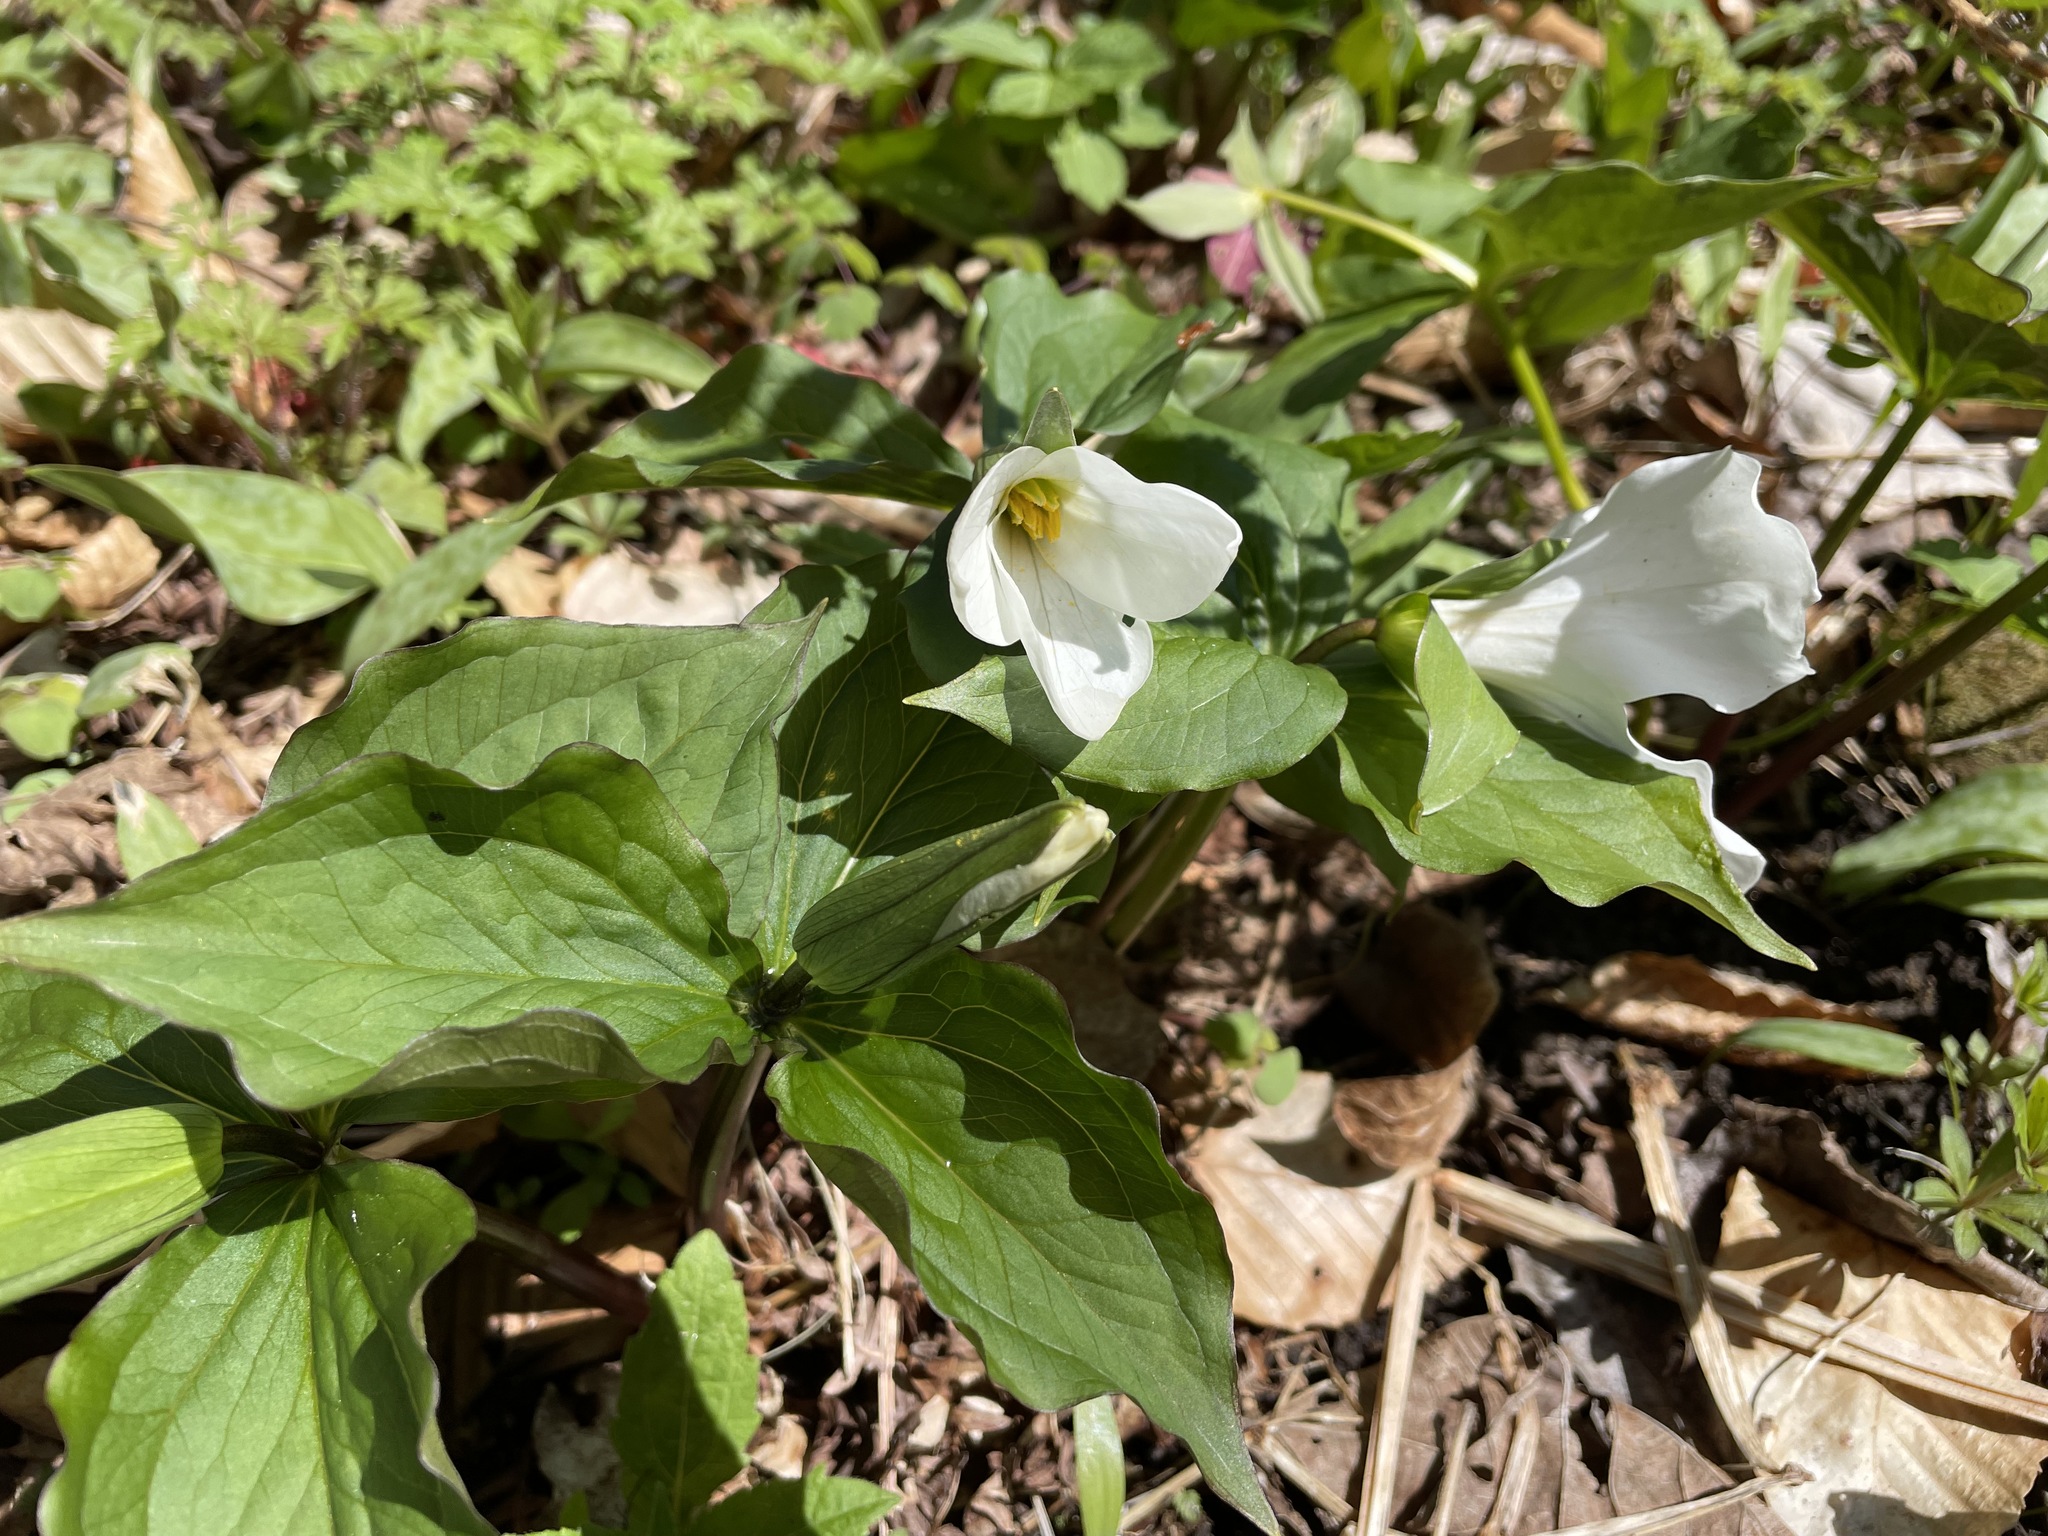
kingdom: Plantae
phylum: Tracheophyta
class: Liliopsida
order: Liliales
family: Melanthiaceae
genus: Trillium
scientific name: Trillium grandiflorum
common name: Great white trillium
